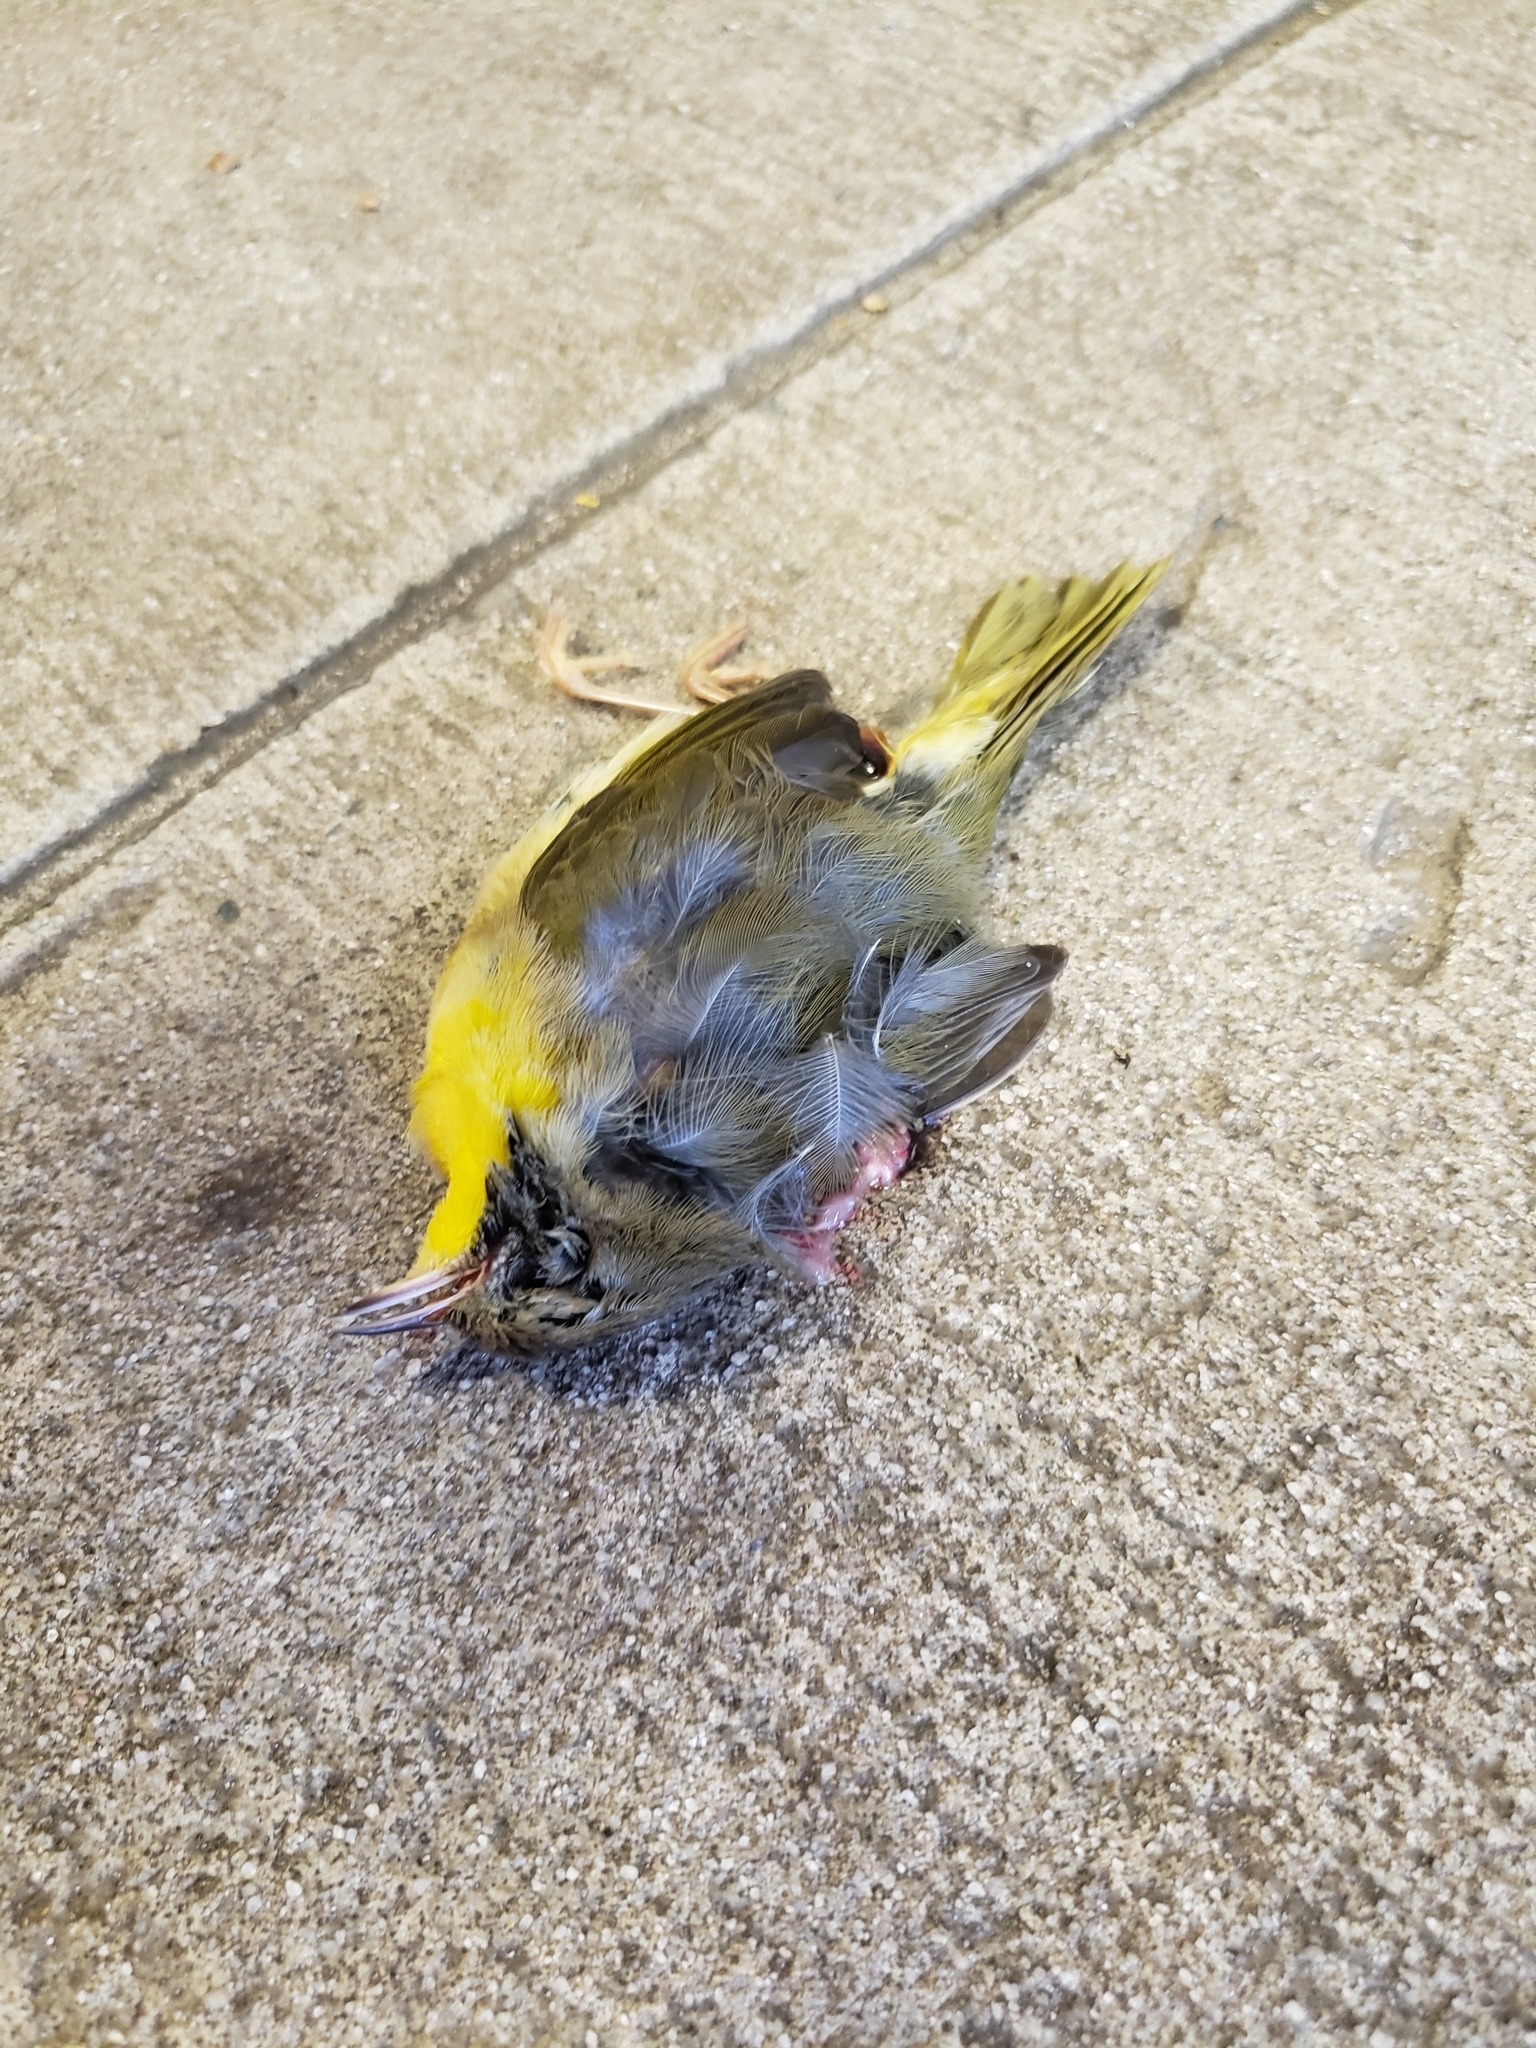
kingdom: Animalia
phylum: Chordata
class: Aves
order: Passeriformes
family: Parulidae
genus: Geothlypis
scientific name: Geothlypis trichas
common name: Common yellowthroat
